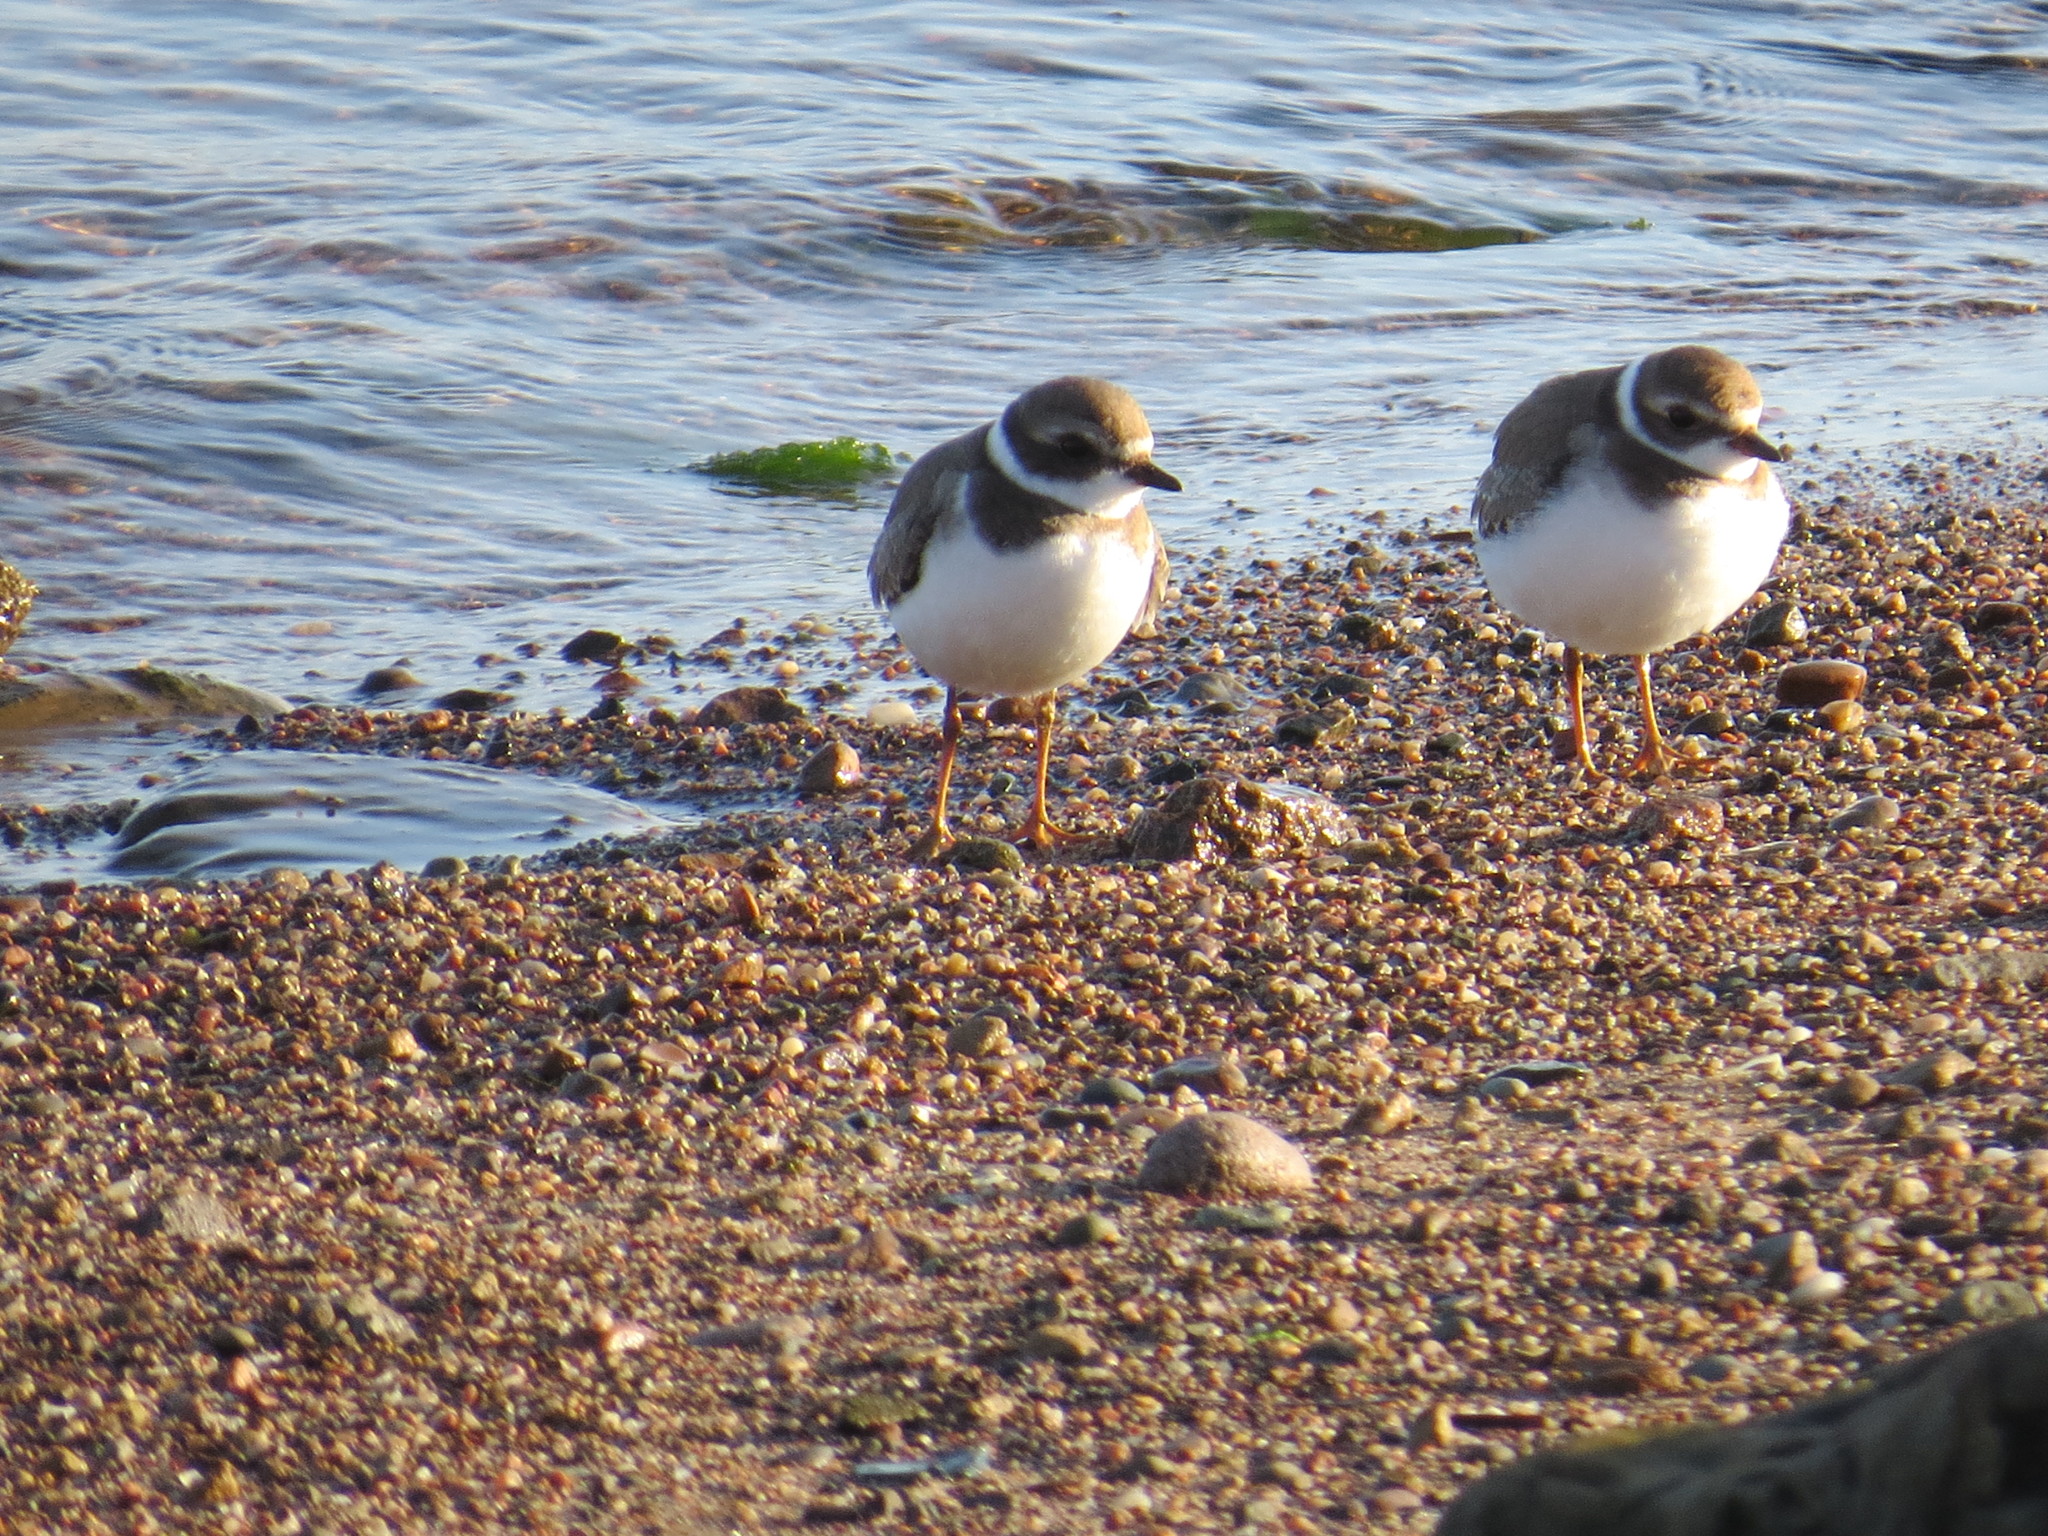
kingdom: Animalia
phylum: Chordata
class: Aves
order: Charadriiformes
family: Charadriidae
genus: Charadrius
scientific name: Charadrius semipalmatus
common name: Semipalmated plover
